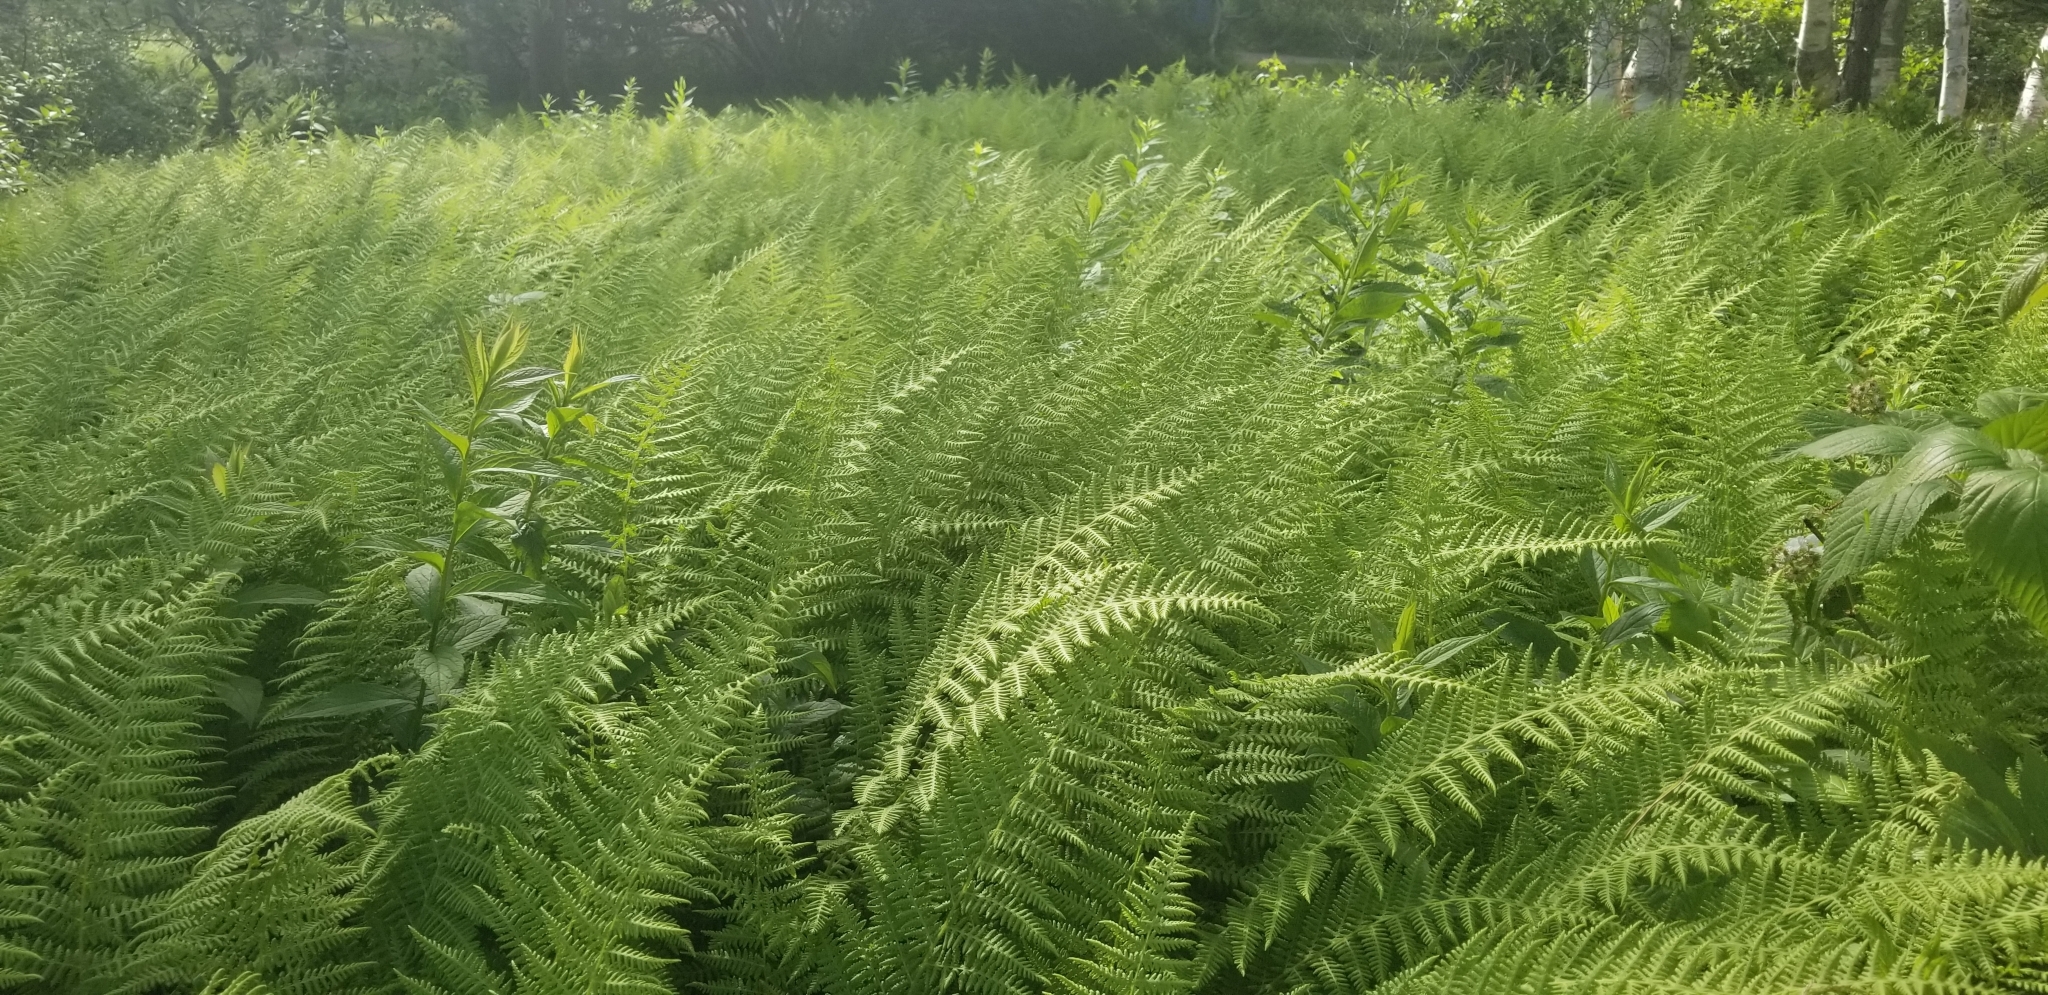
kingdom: Plantae
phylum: Tracheophyta
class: Polypodiopsida
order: Polypodiales
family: Dennstaedtiaceae
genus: Sitobolium
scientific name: Sitobolium punctilobum
